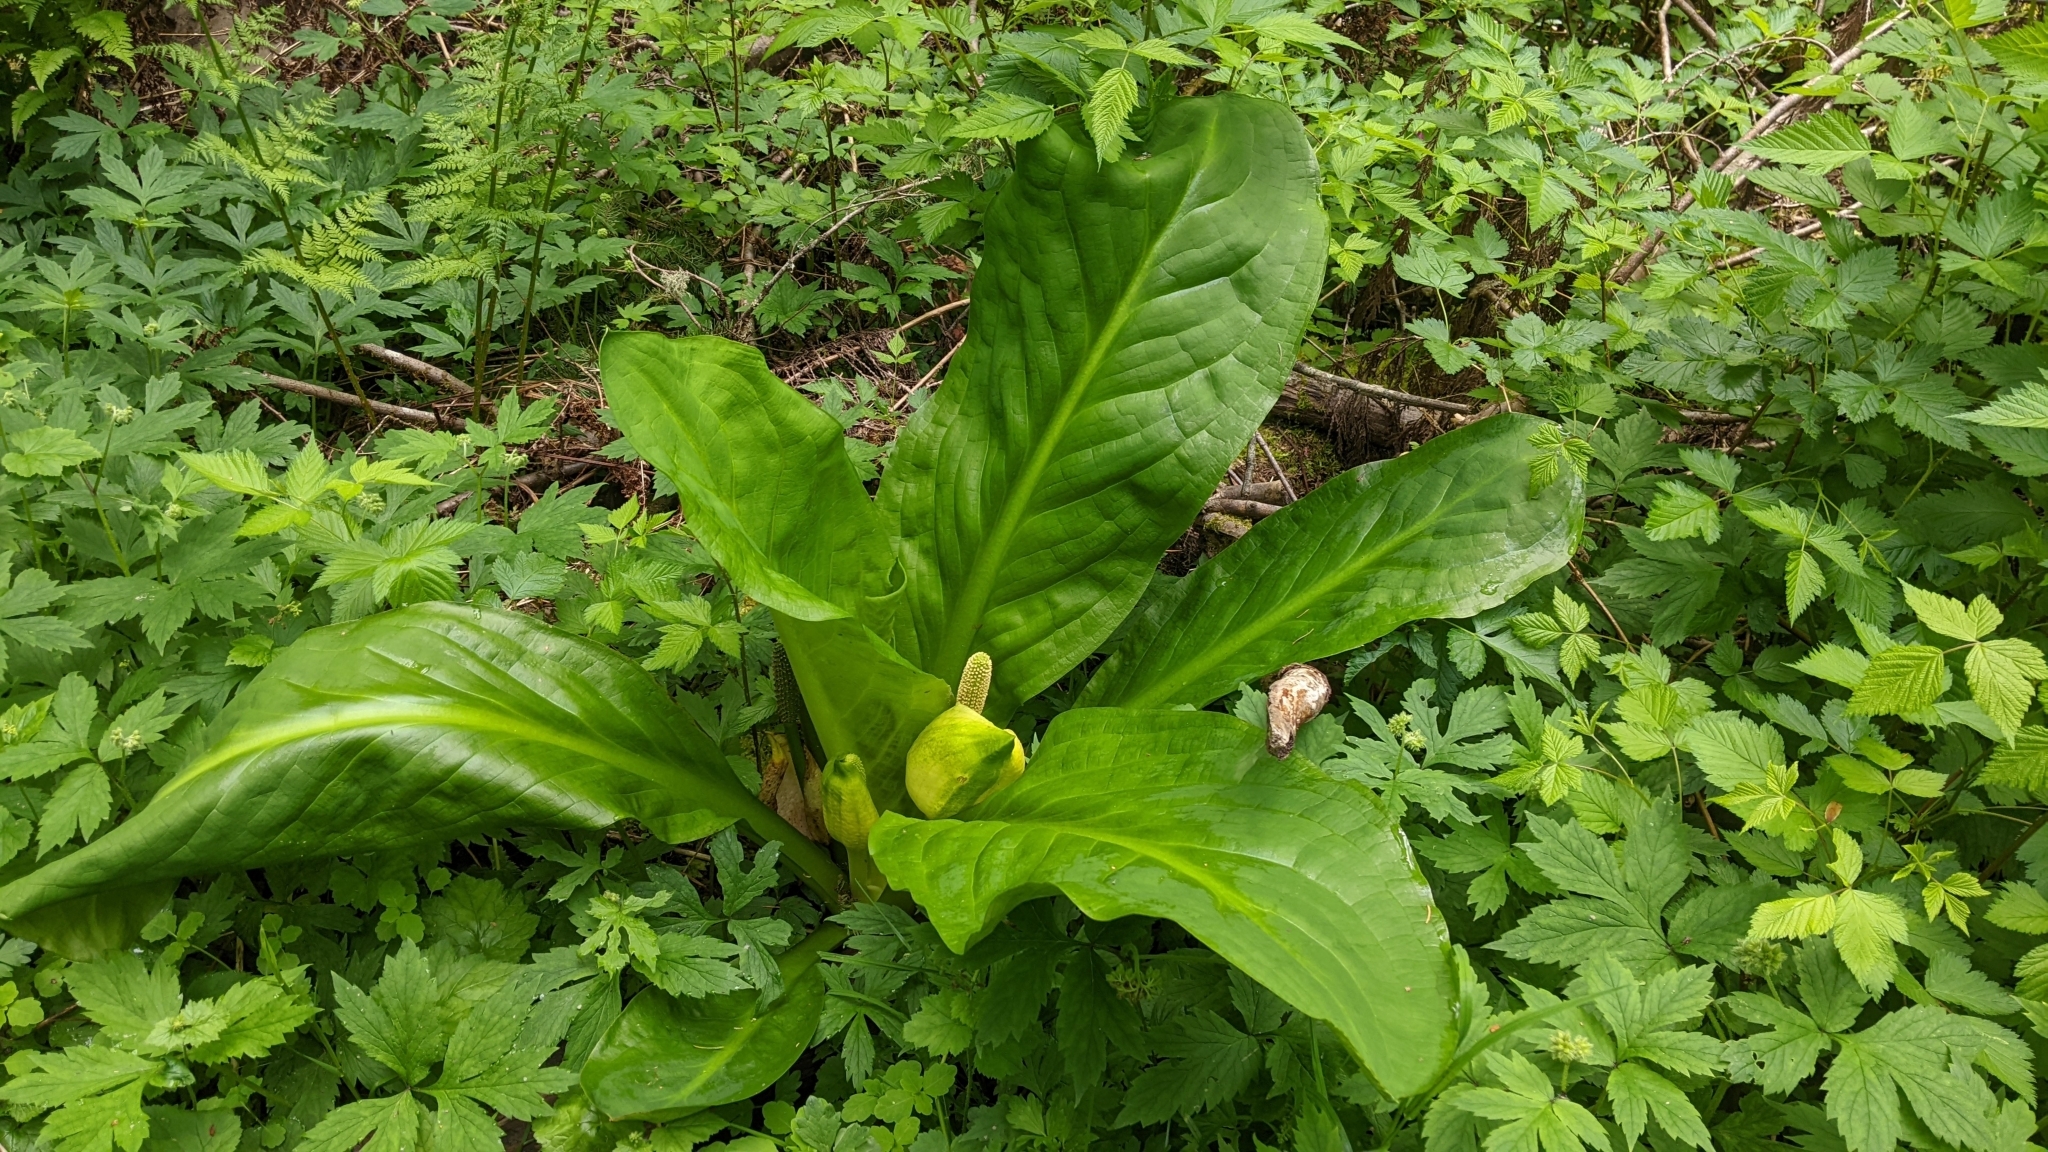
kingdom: Plantae
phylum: Tracheophyta
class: Liliopsida
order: Alismatales
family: Araceae
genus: Lysichiton
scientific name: Lysichiton americanus
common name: American skunk cabbage
